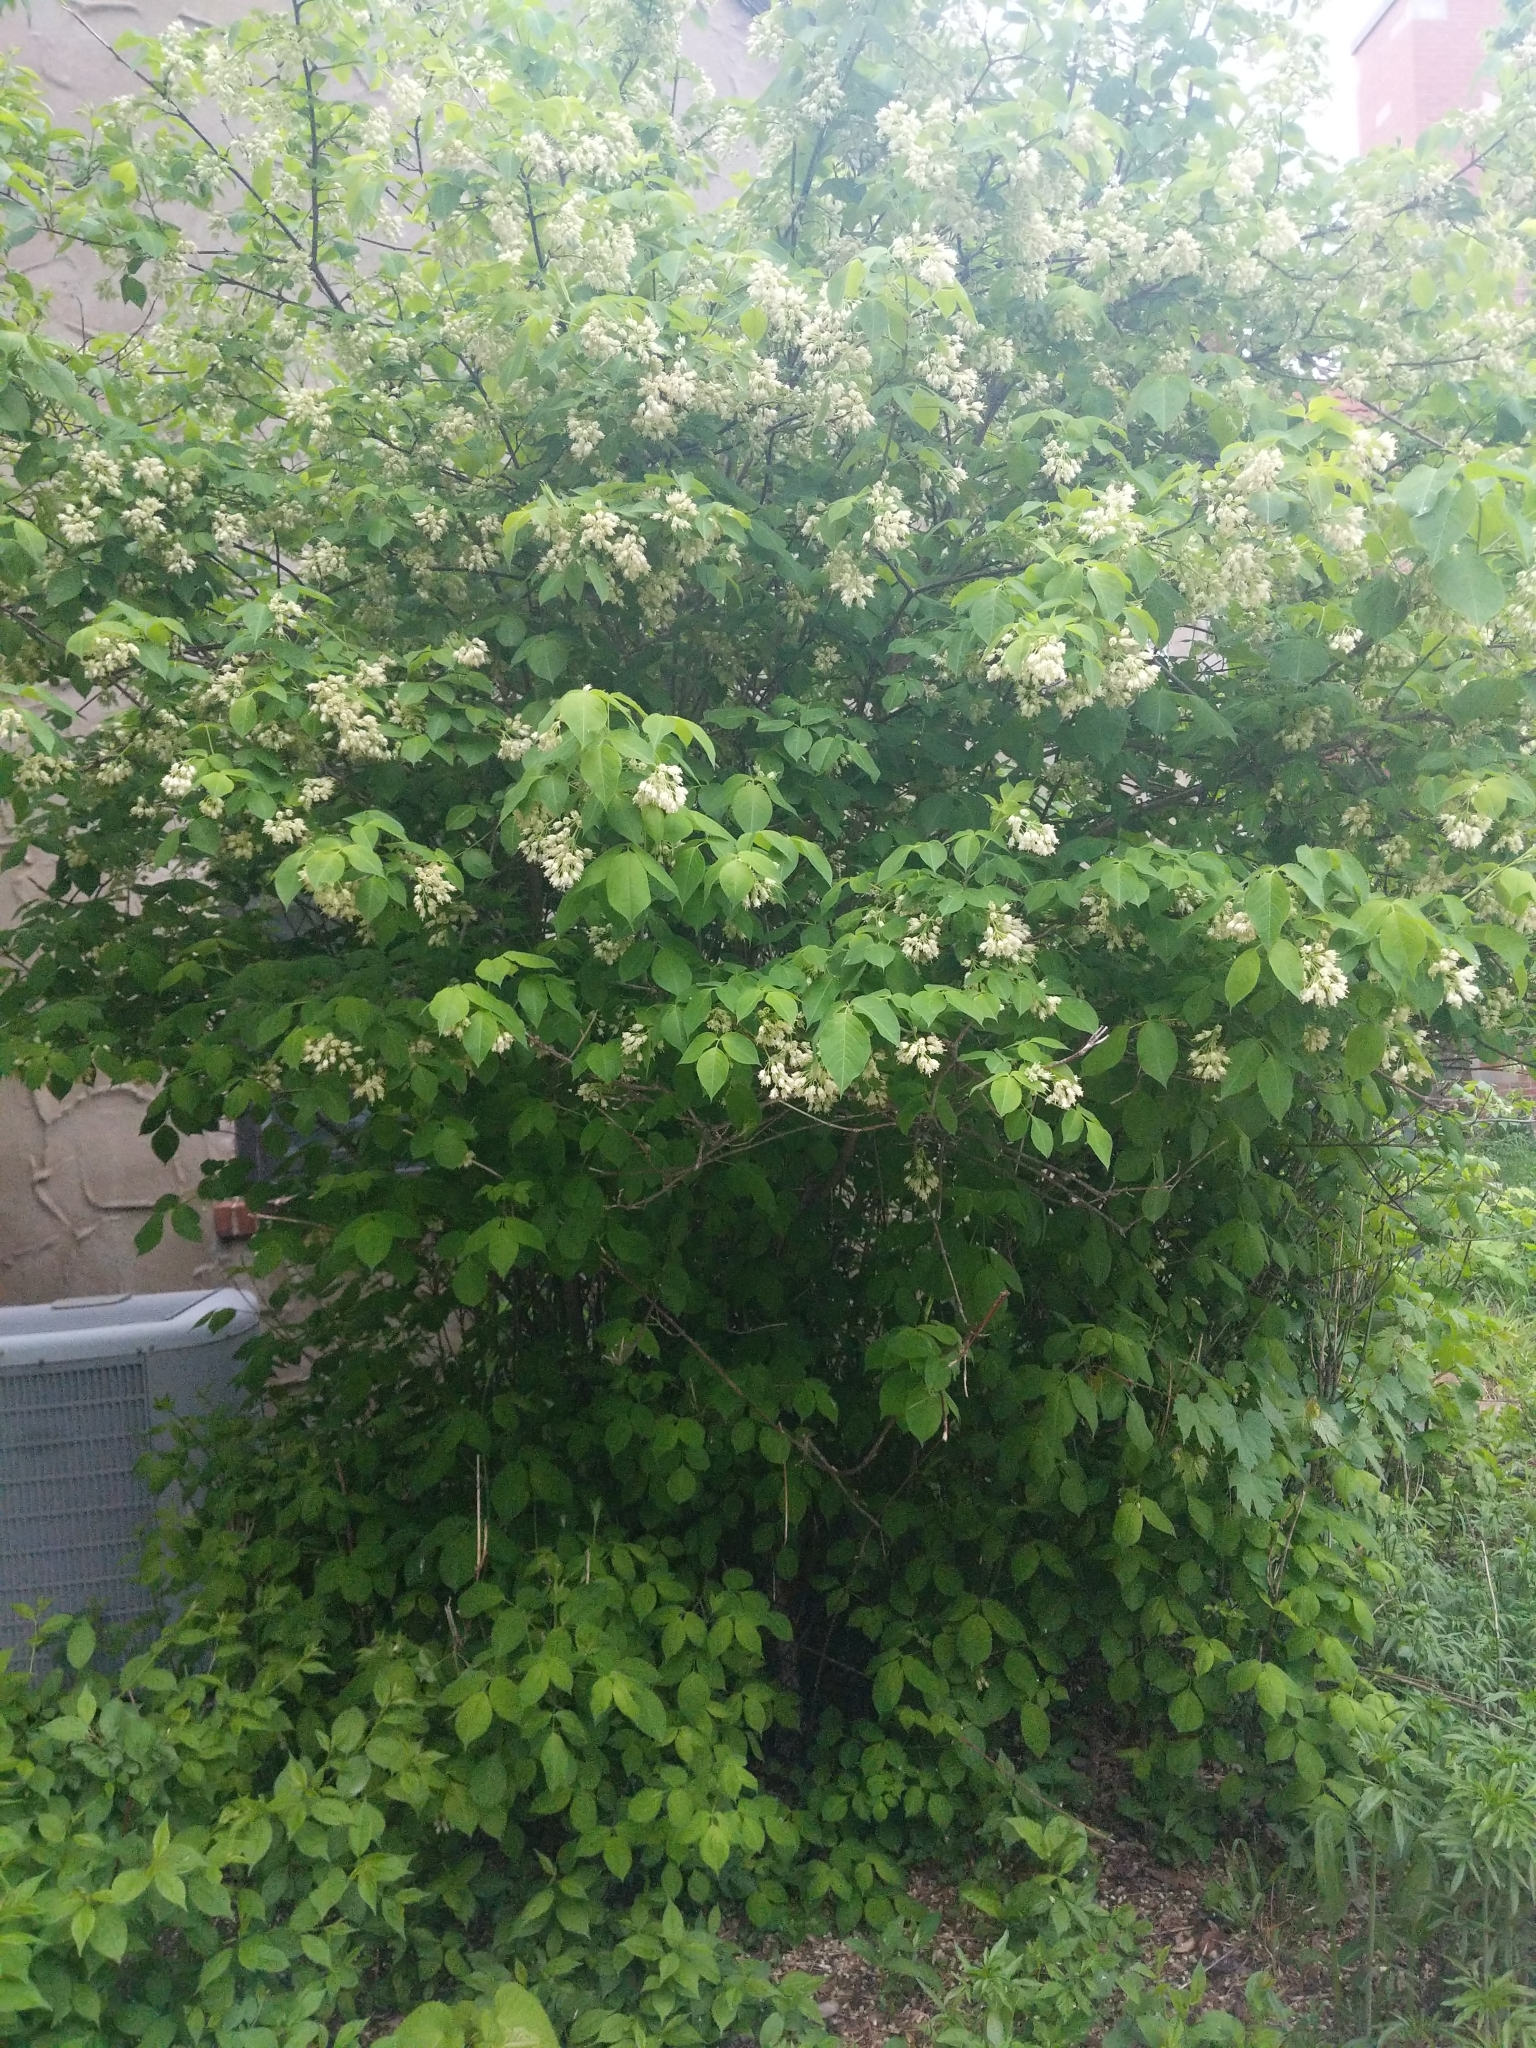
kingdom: Plantae
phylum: Tracheophyta
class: Magnoliopsida
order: Crossosomatales
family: Staphyleaceae
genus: Staphylea
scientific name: Staphylea trifolia
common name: American bladdernut
